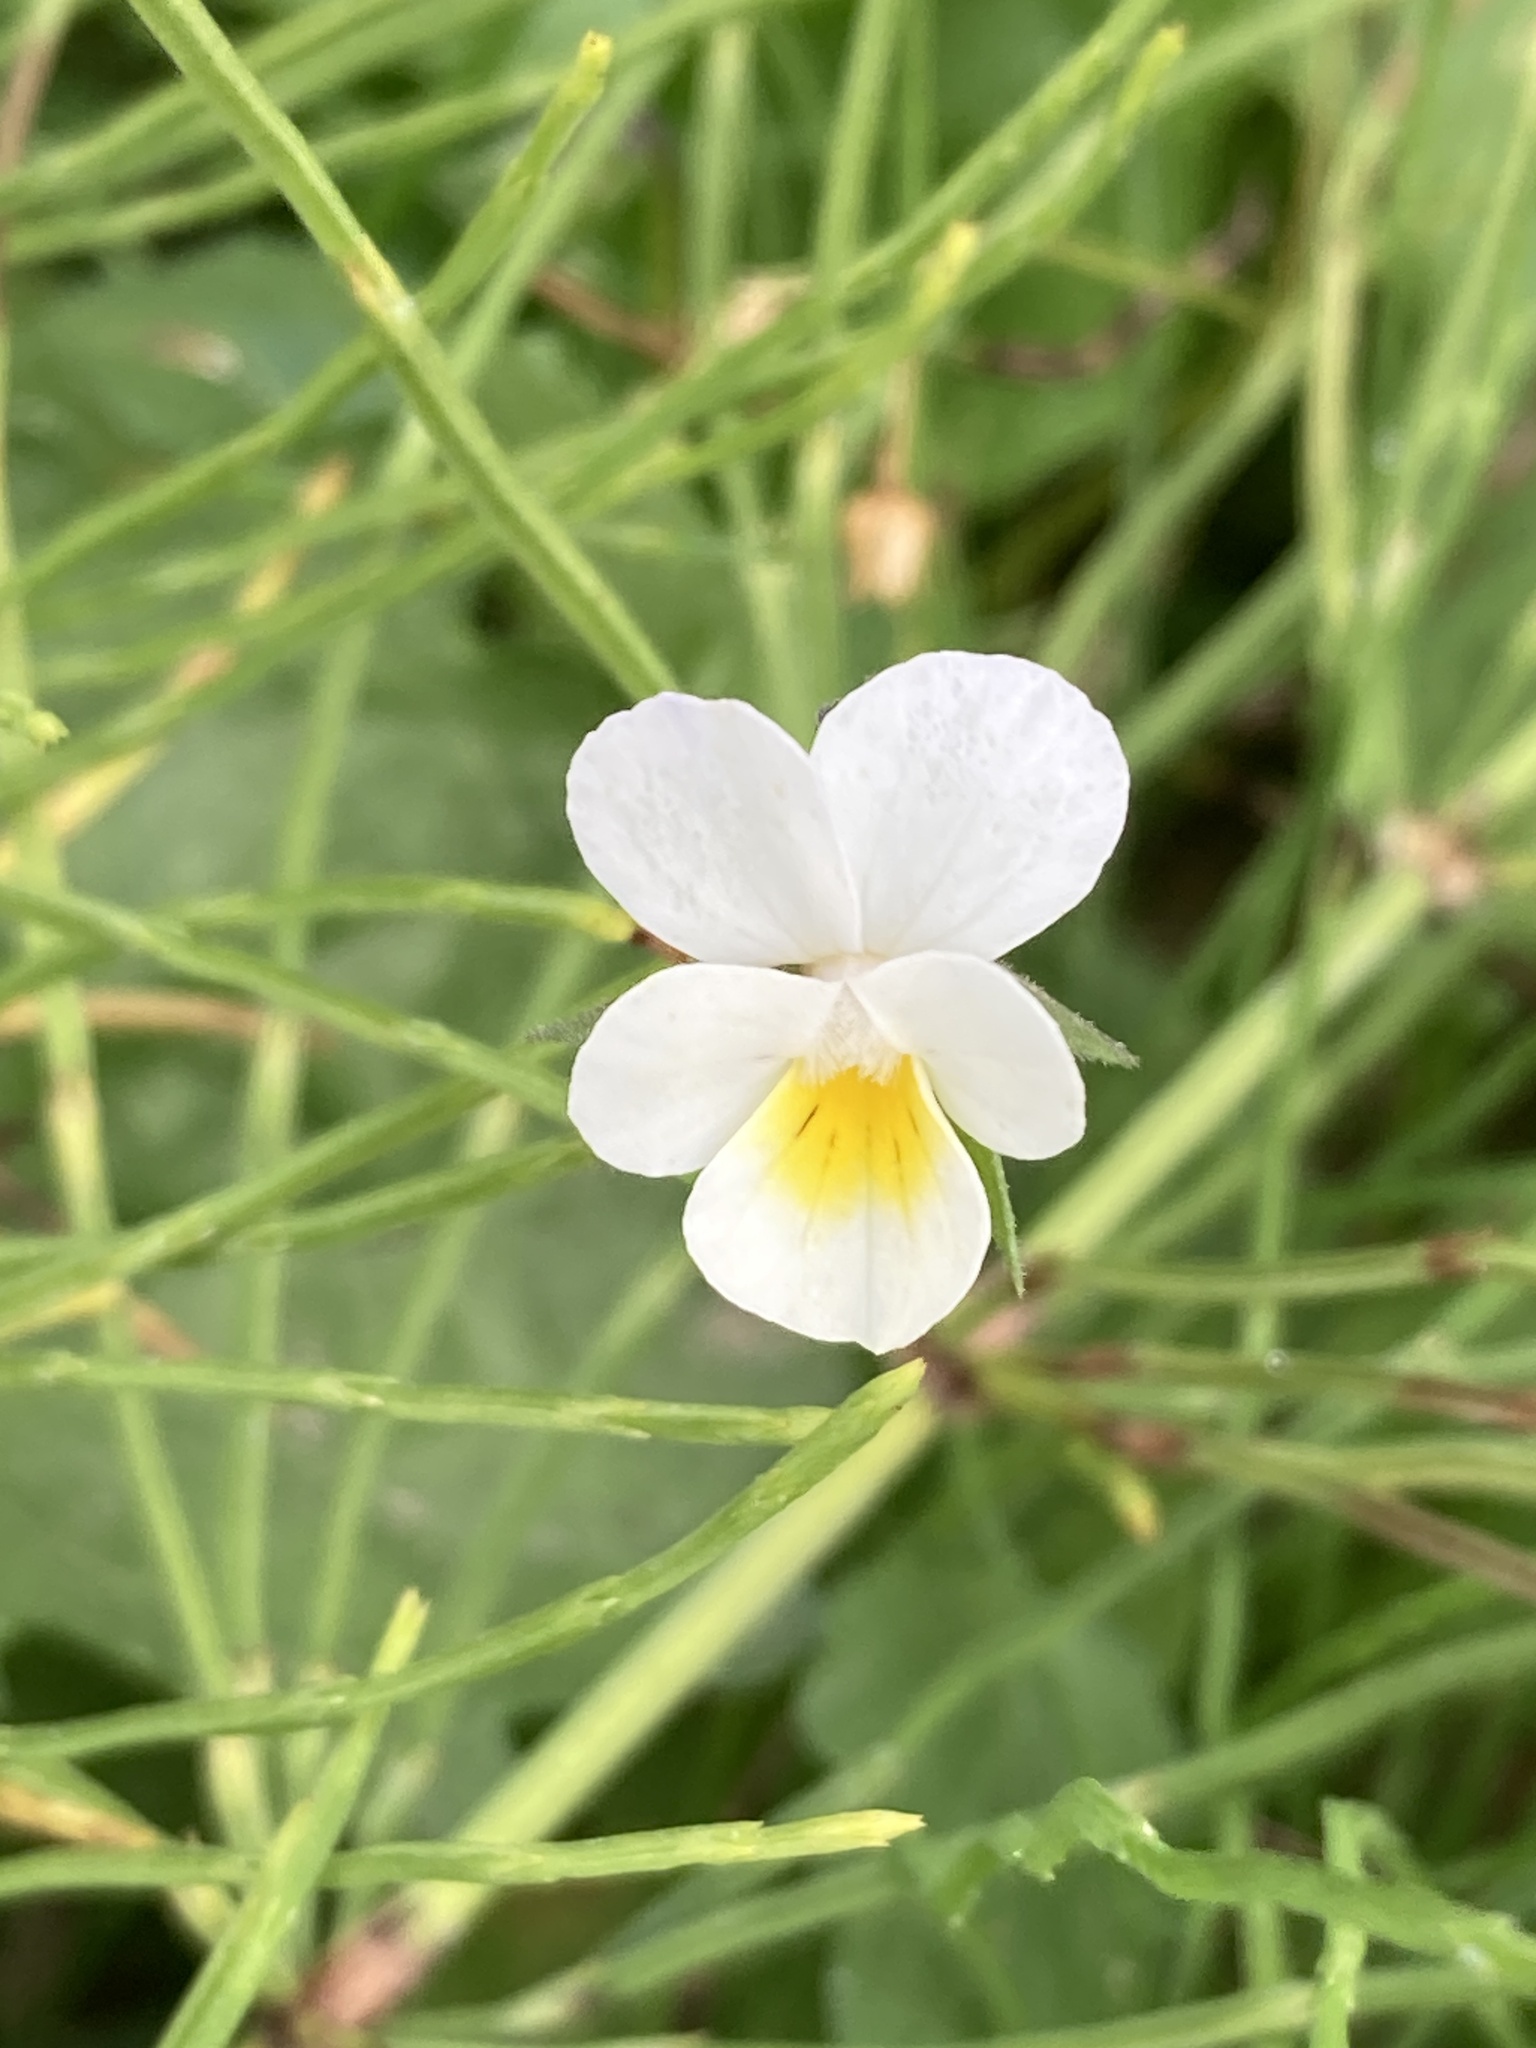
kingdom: Plantae
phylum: Tracheophyta
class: Magnoliopsida
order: Malpighiales
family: Violaceae
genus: Viola
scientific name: Viola arvensis
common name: Field pansy
